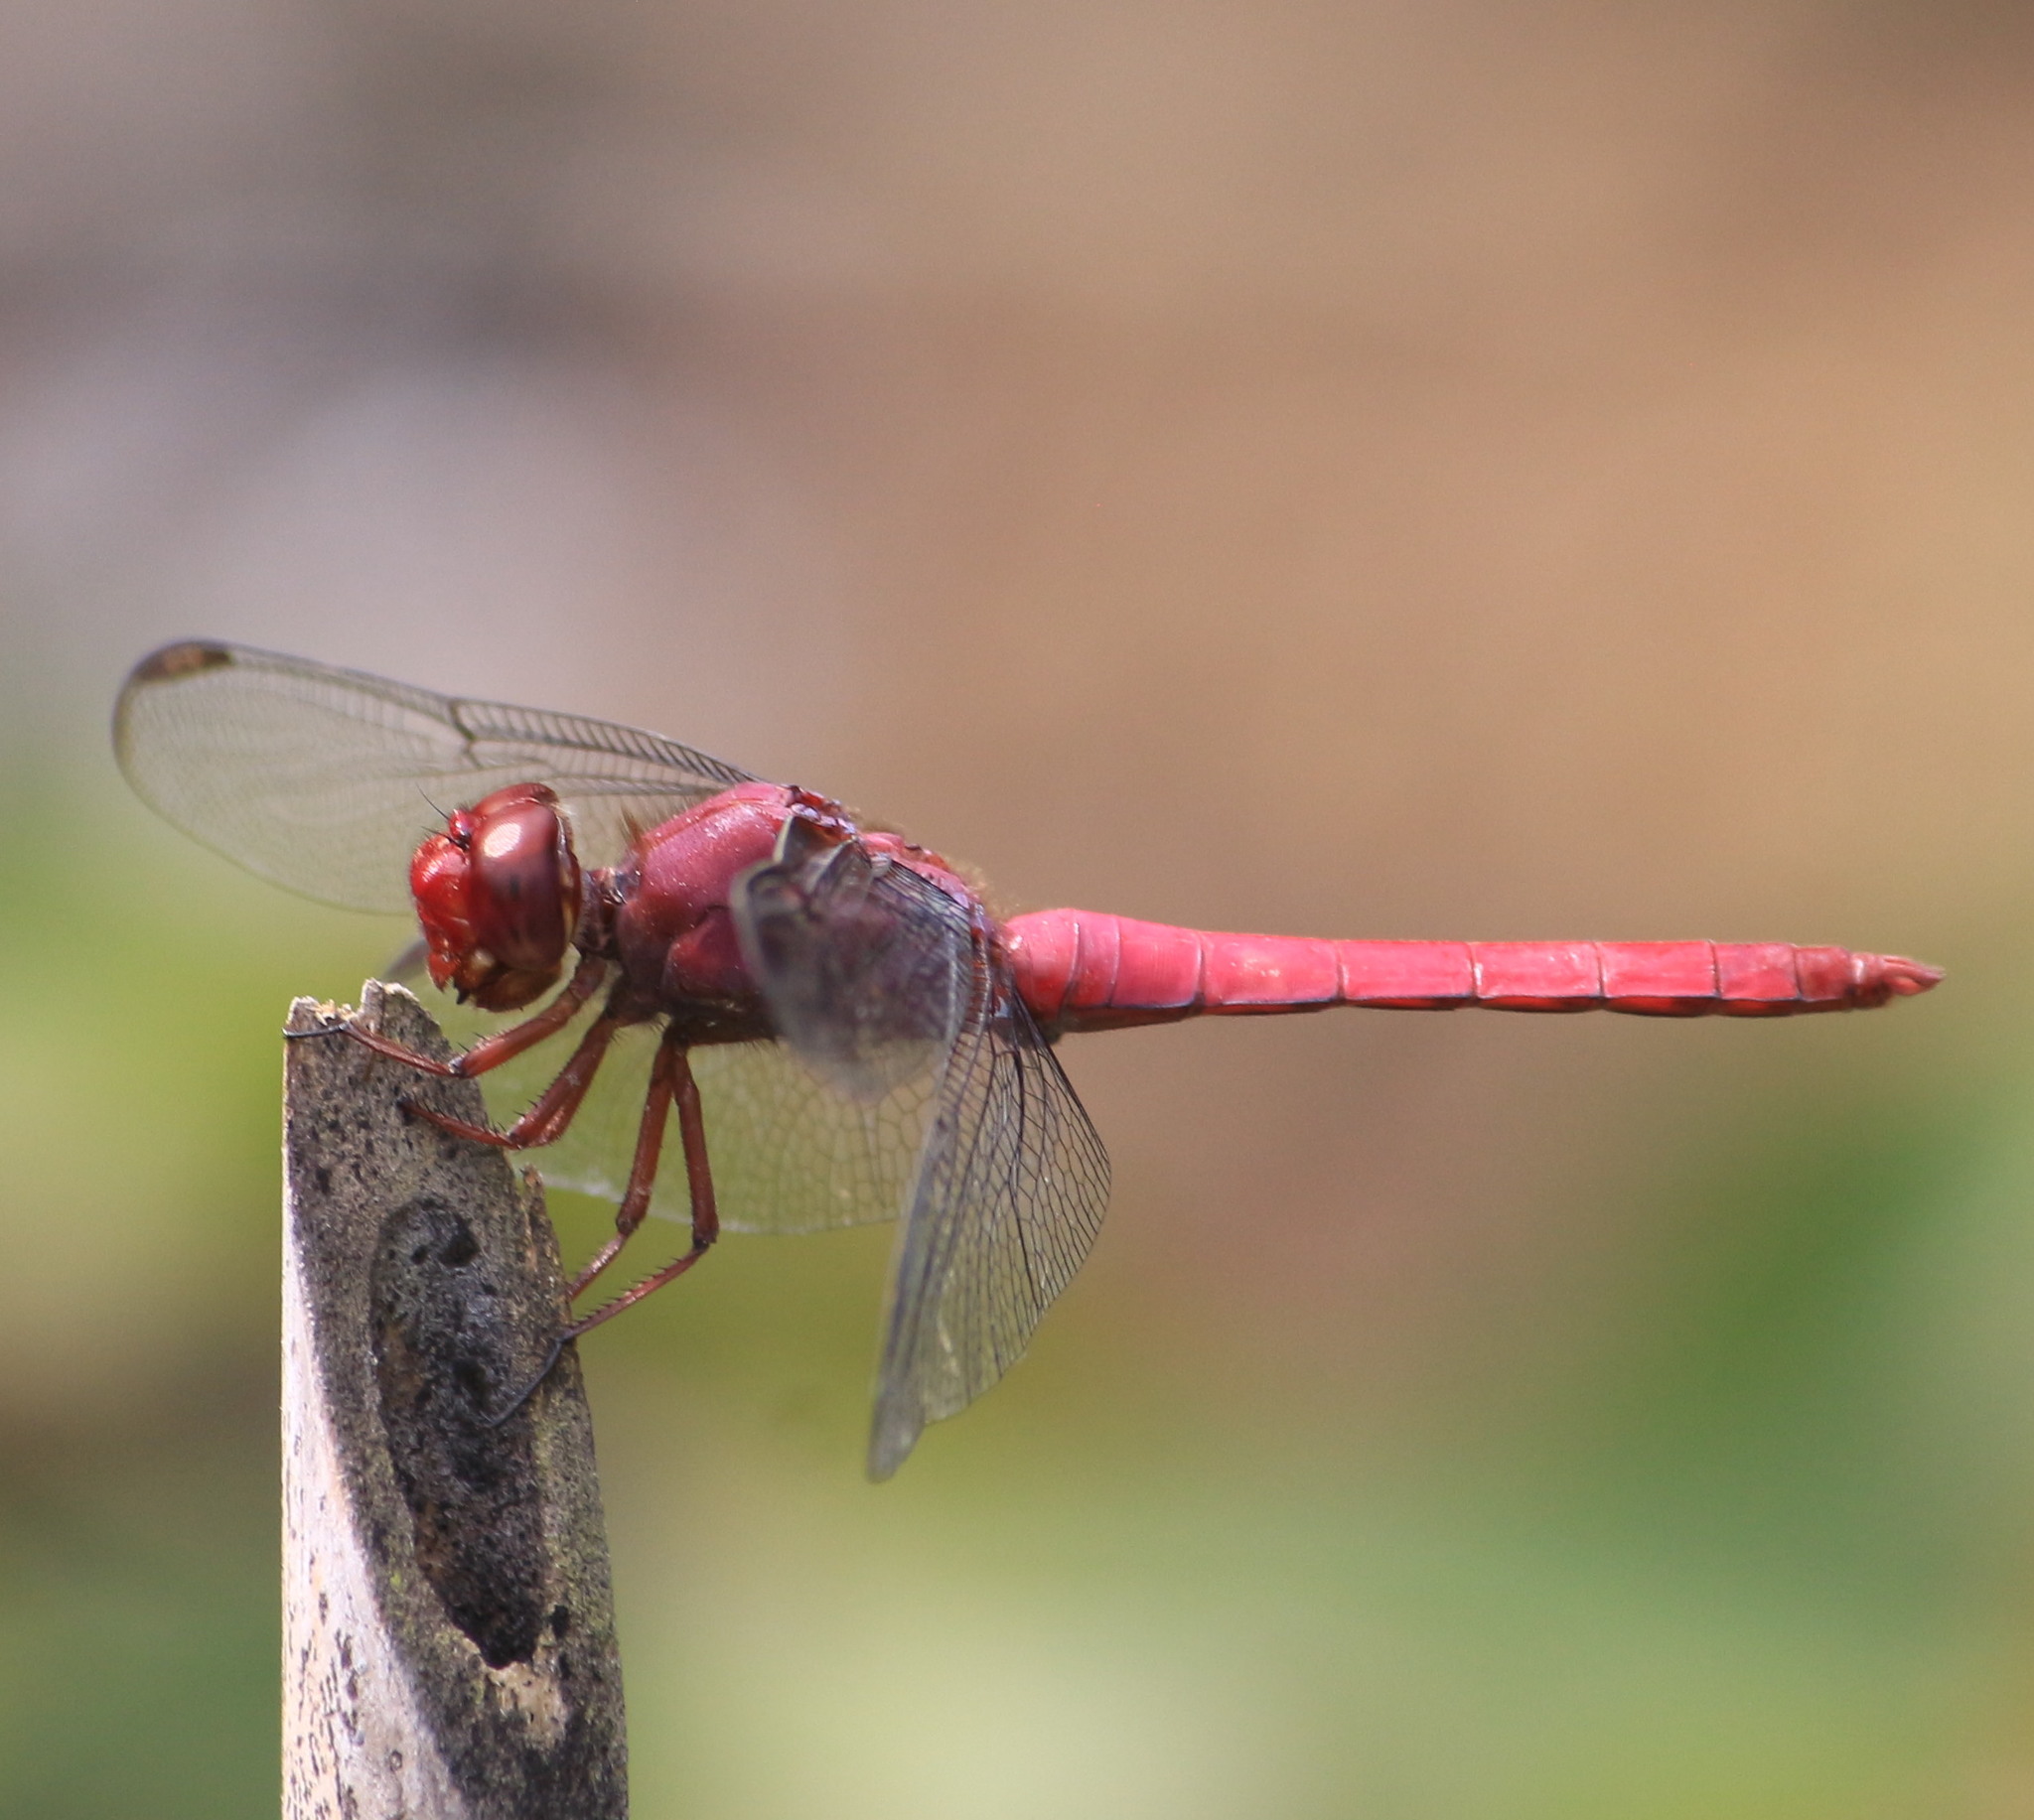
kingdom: Animalia
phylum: Arthropoda
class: Insecta
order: Odonata
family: Libellulidae
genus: Orthemis
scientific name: Orthemis discolor
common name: Carmine skimmer
